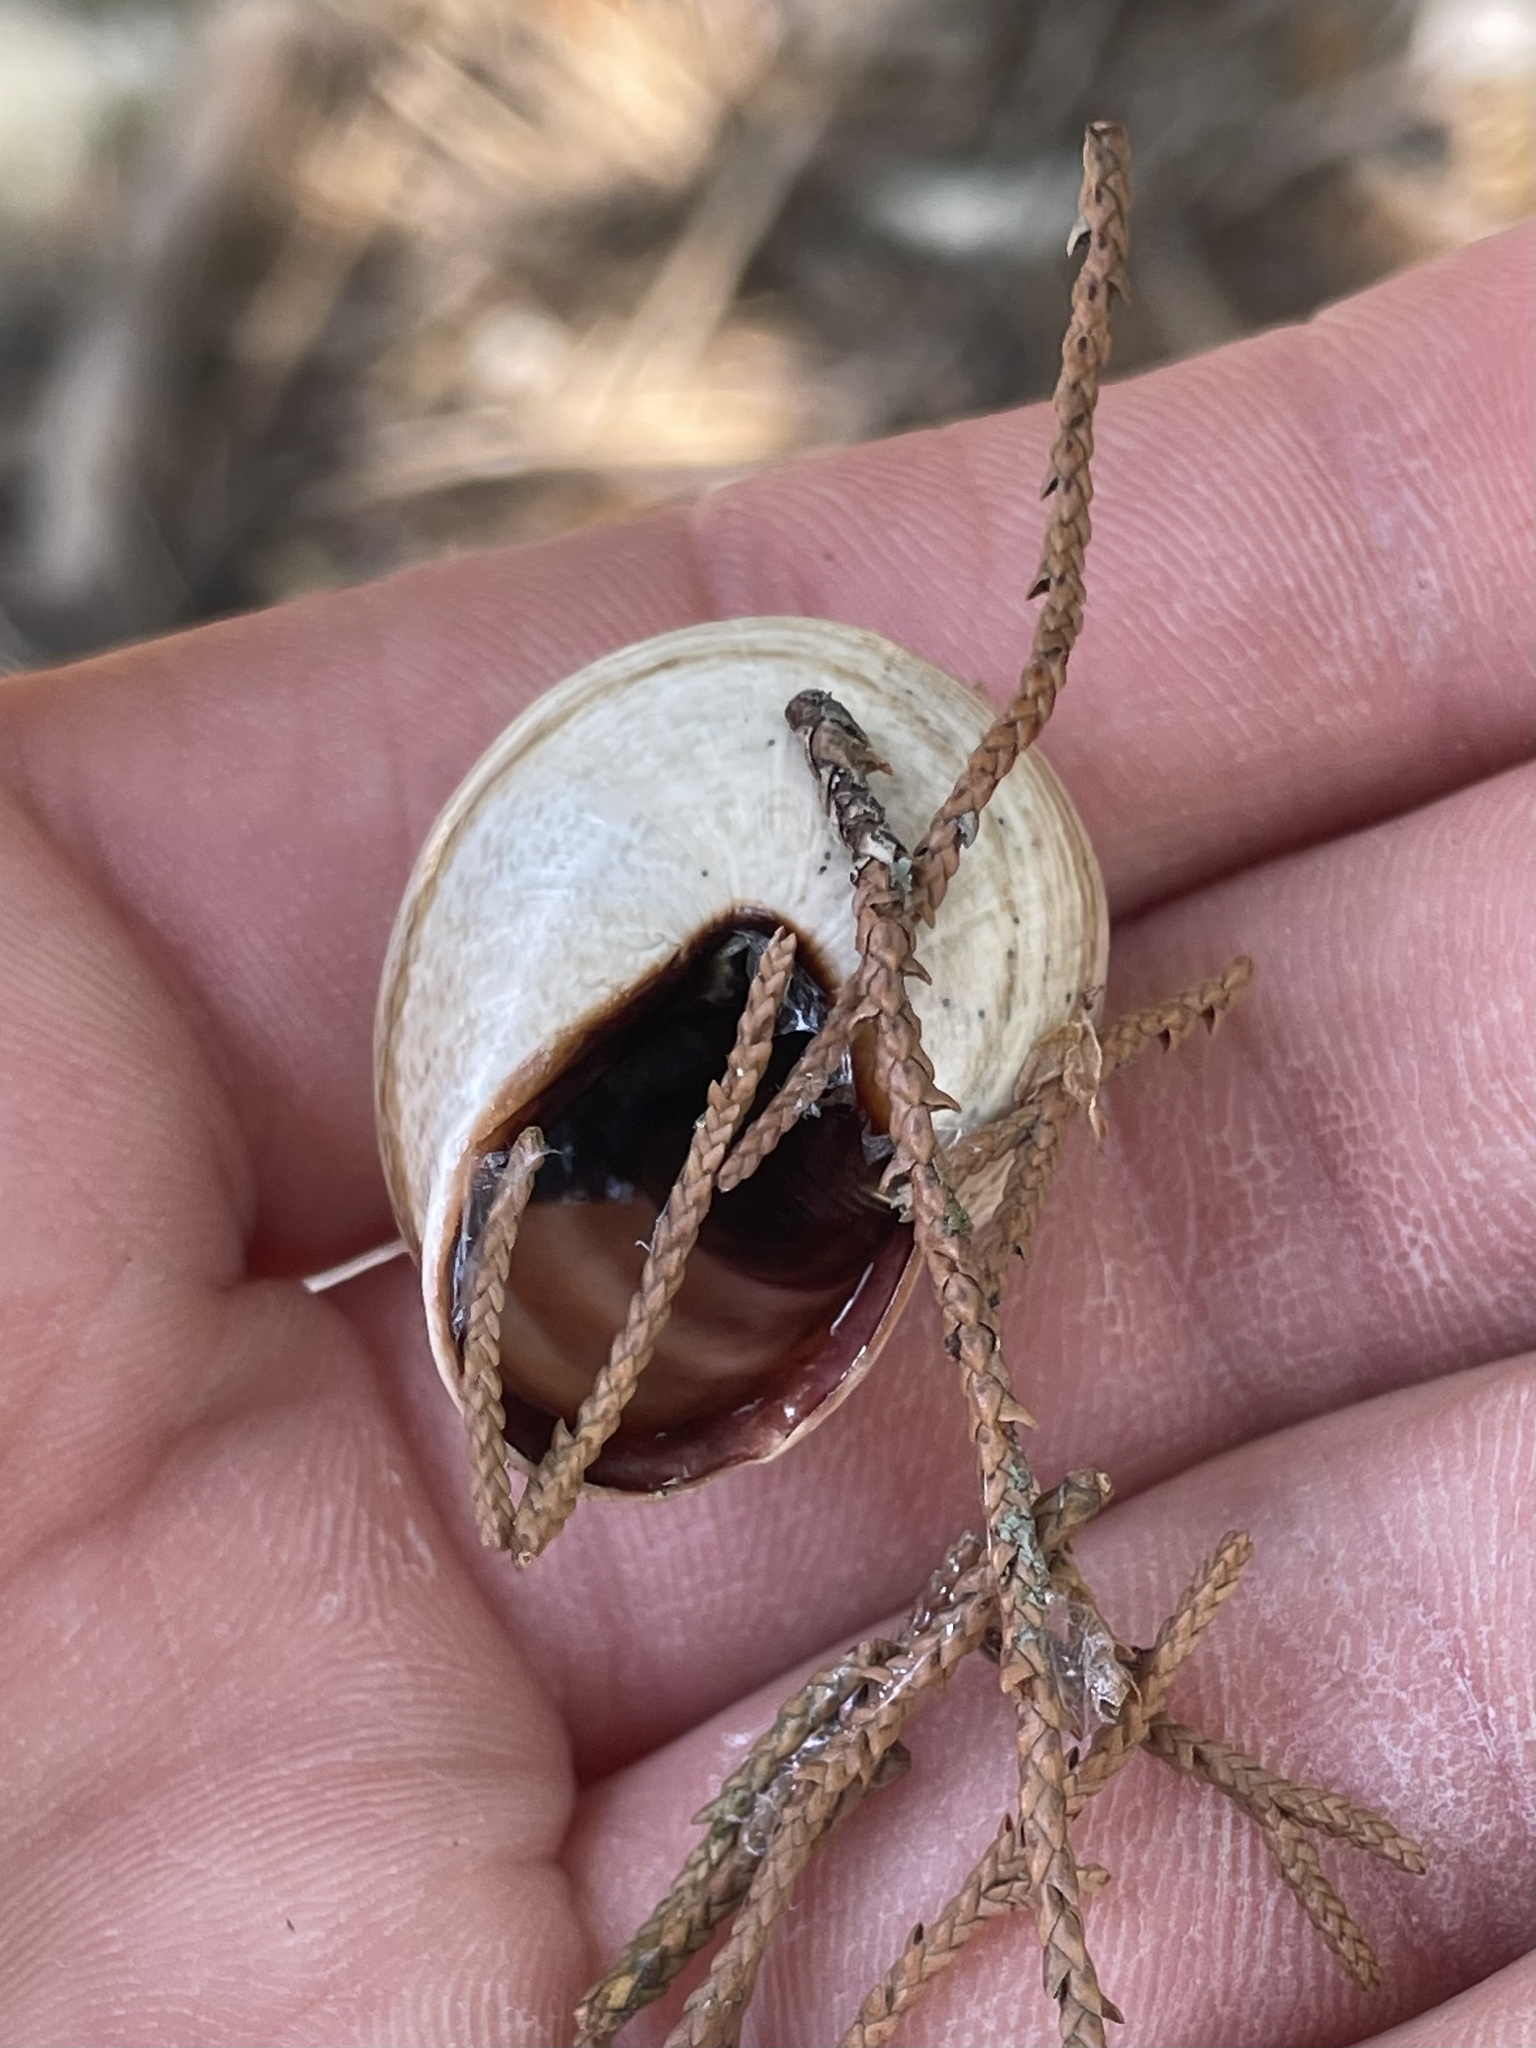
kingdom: Animalia
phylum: Mollusca
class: Gastropoda
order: Stylommatophora
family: Helicidae
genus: Otala
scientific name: Otala lactea
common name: Milk snail
